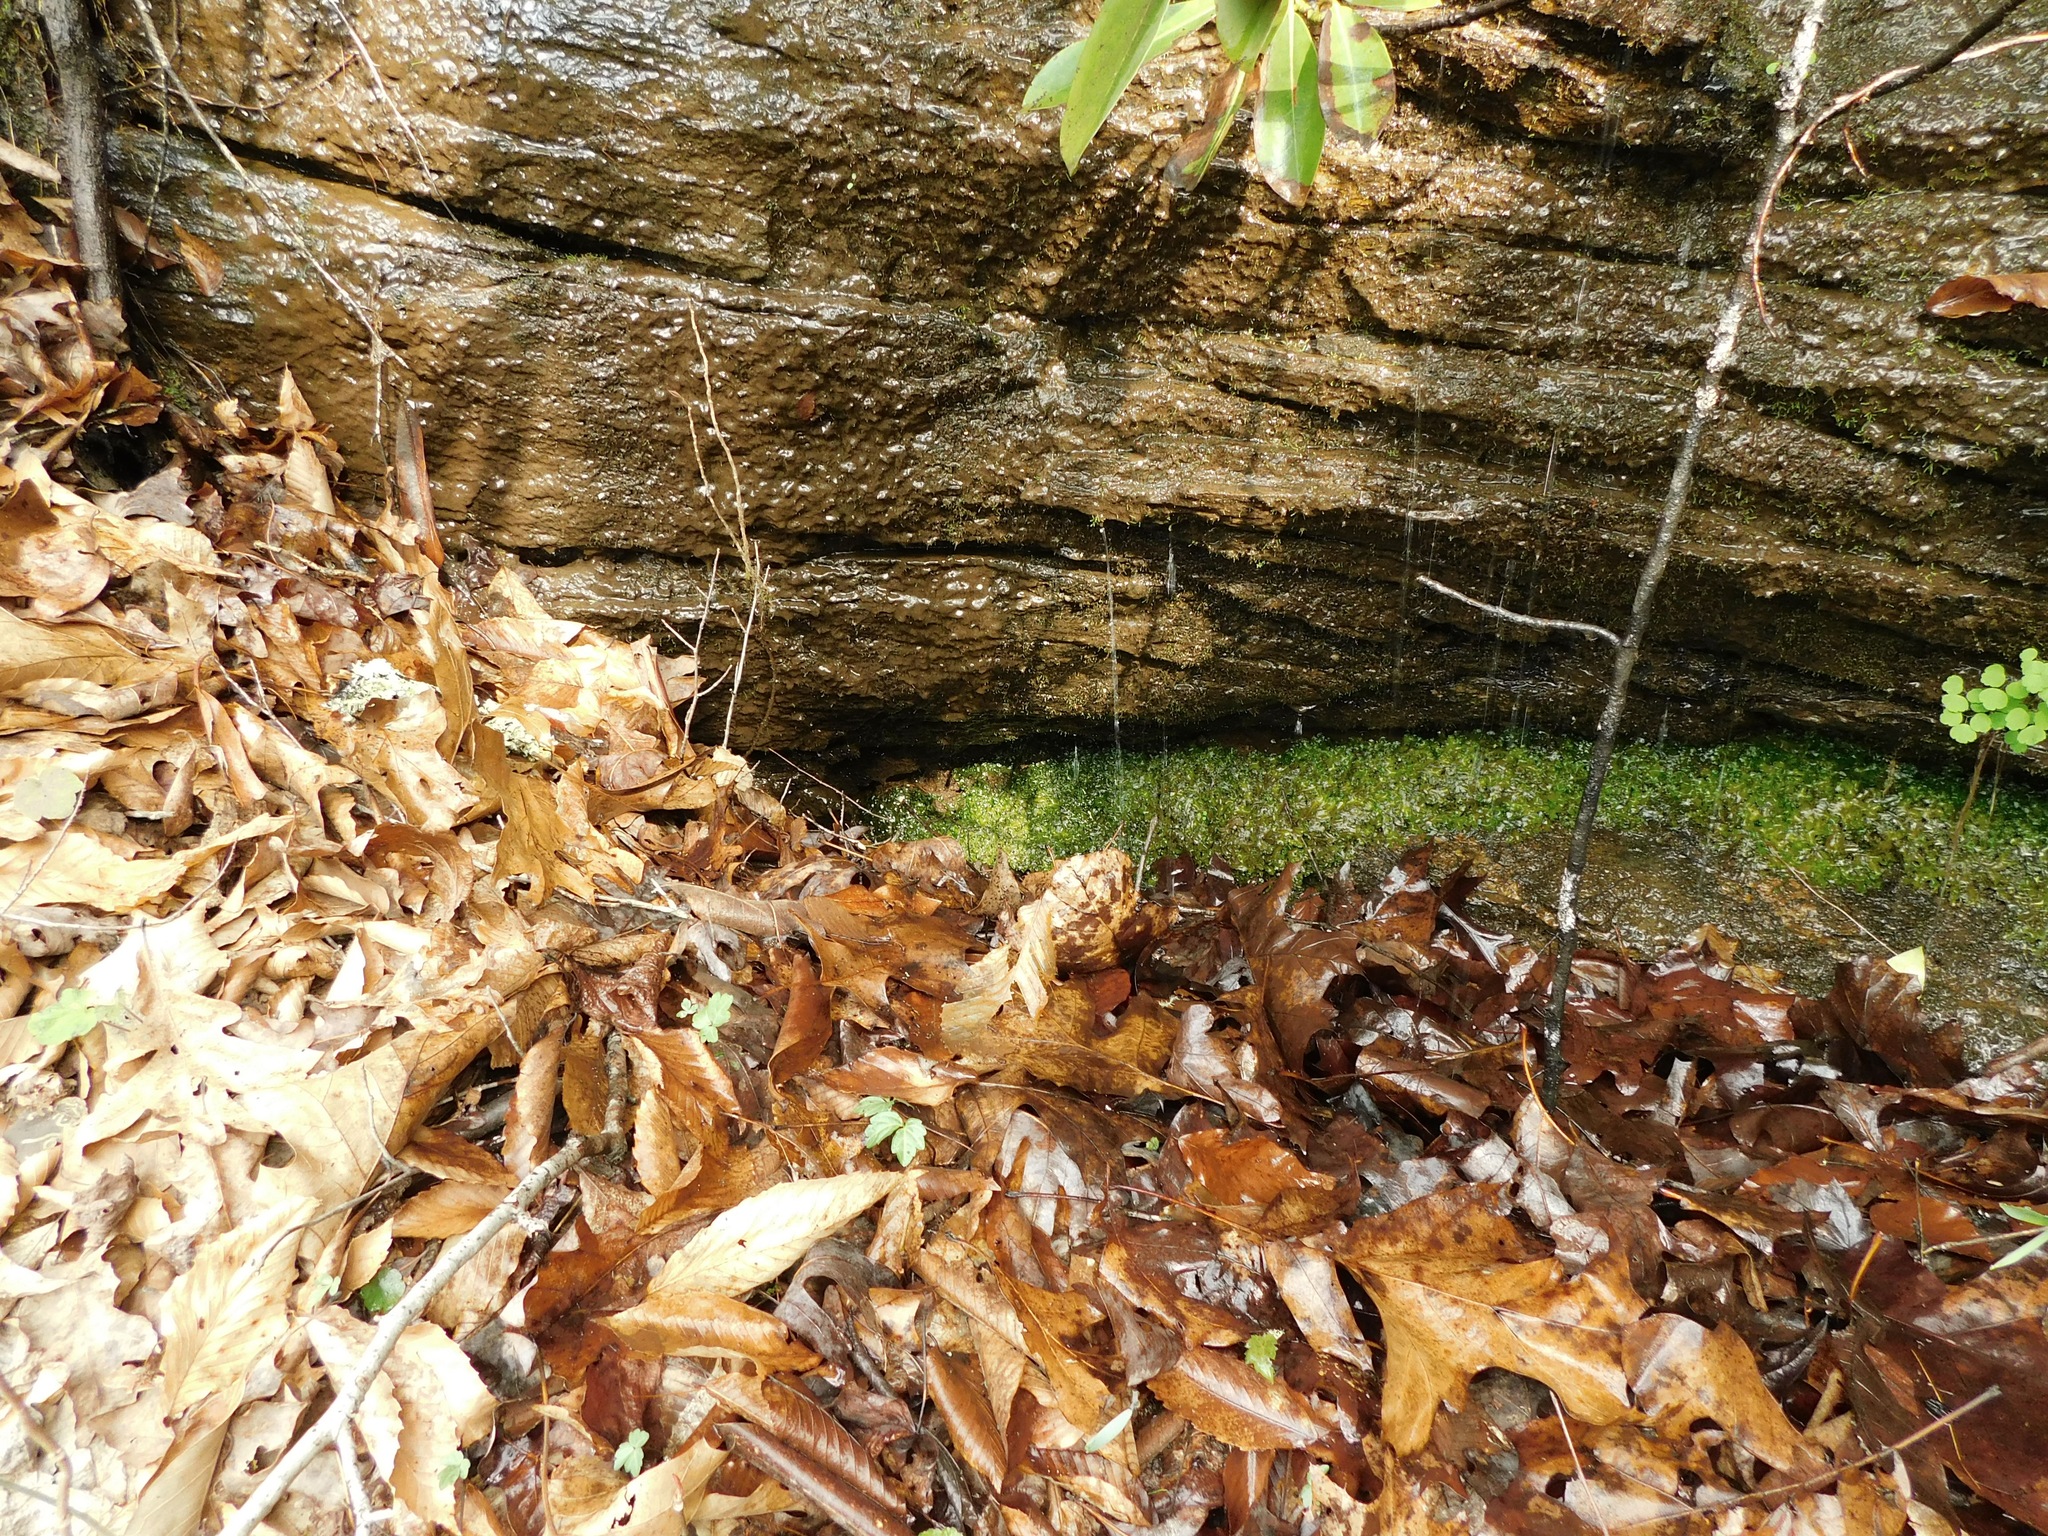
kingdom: Plantae
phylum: Marchantiophyta
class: Jungermanniopsida
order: Pallaviciniales
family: Pallaviciniaceae
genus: Pallavicinia
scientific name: Pallavicinia lyellii
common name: Veilwort
